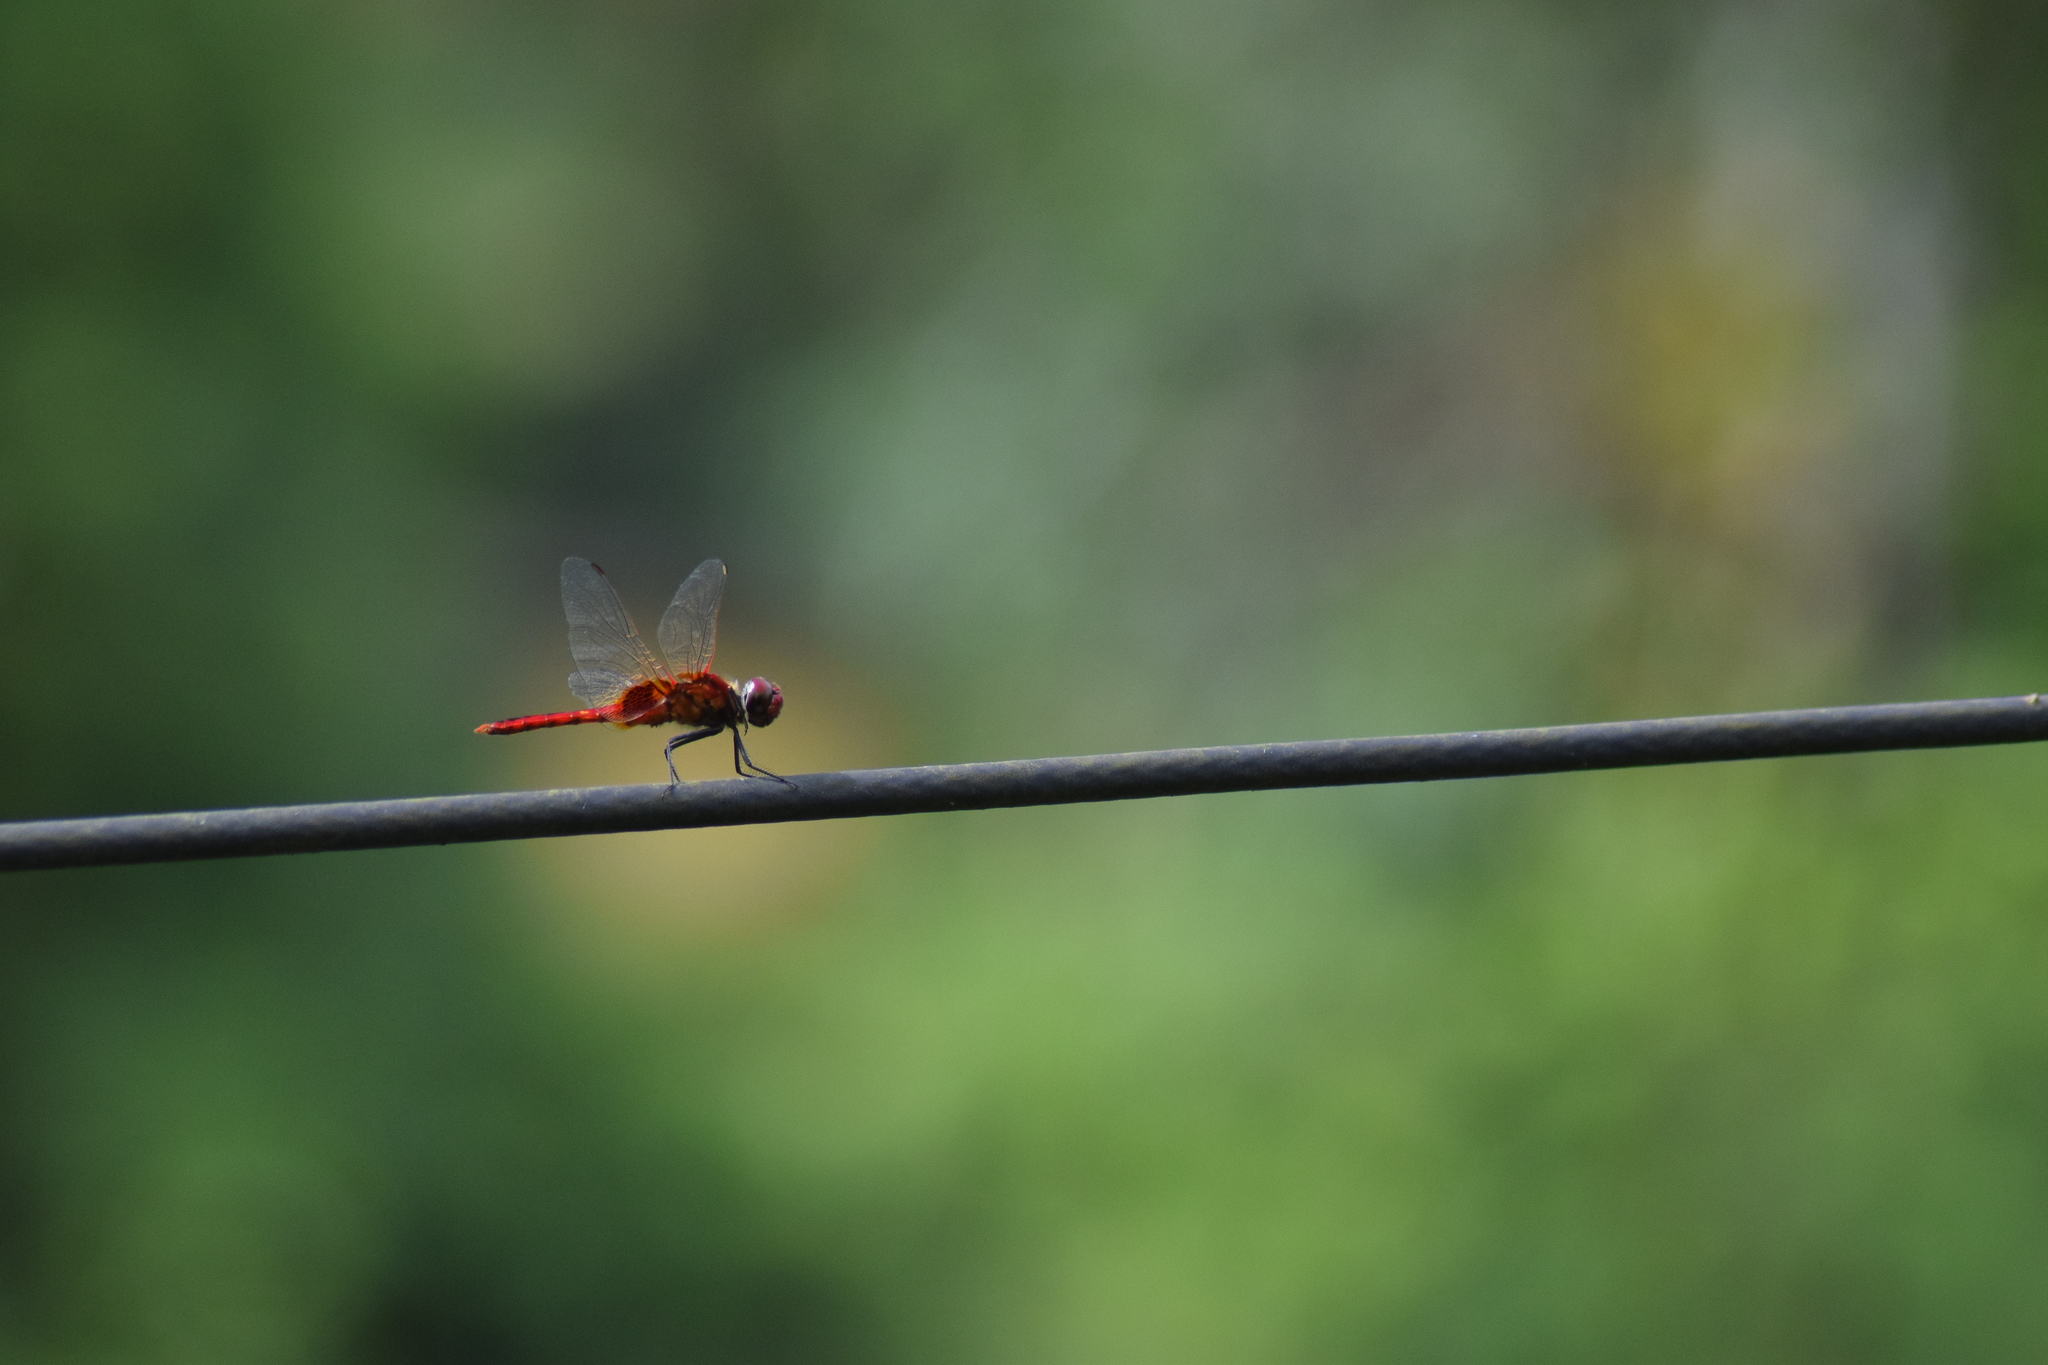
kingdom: Animalia
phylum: Arthropoda
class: Insecta
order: Odonata
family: Libellulidae
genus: Urothemis
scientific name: Urothemis signata
